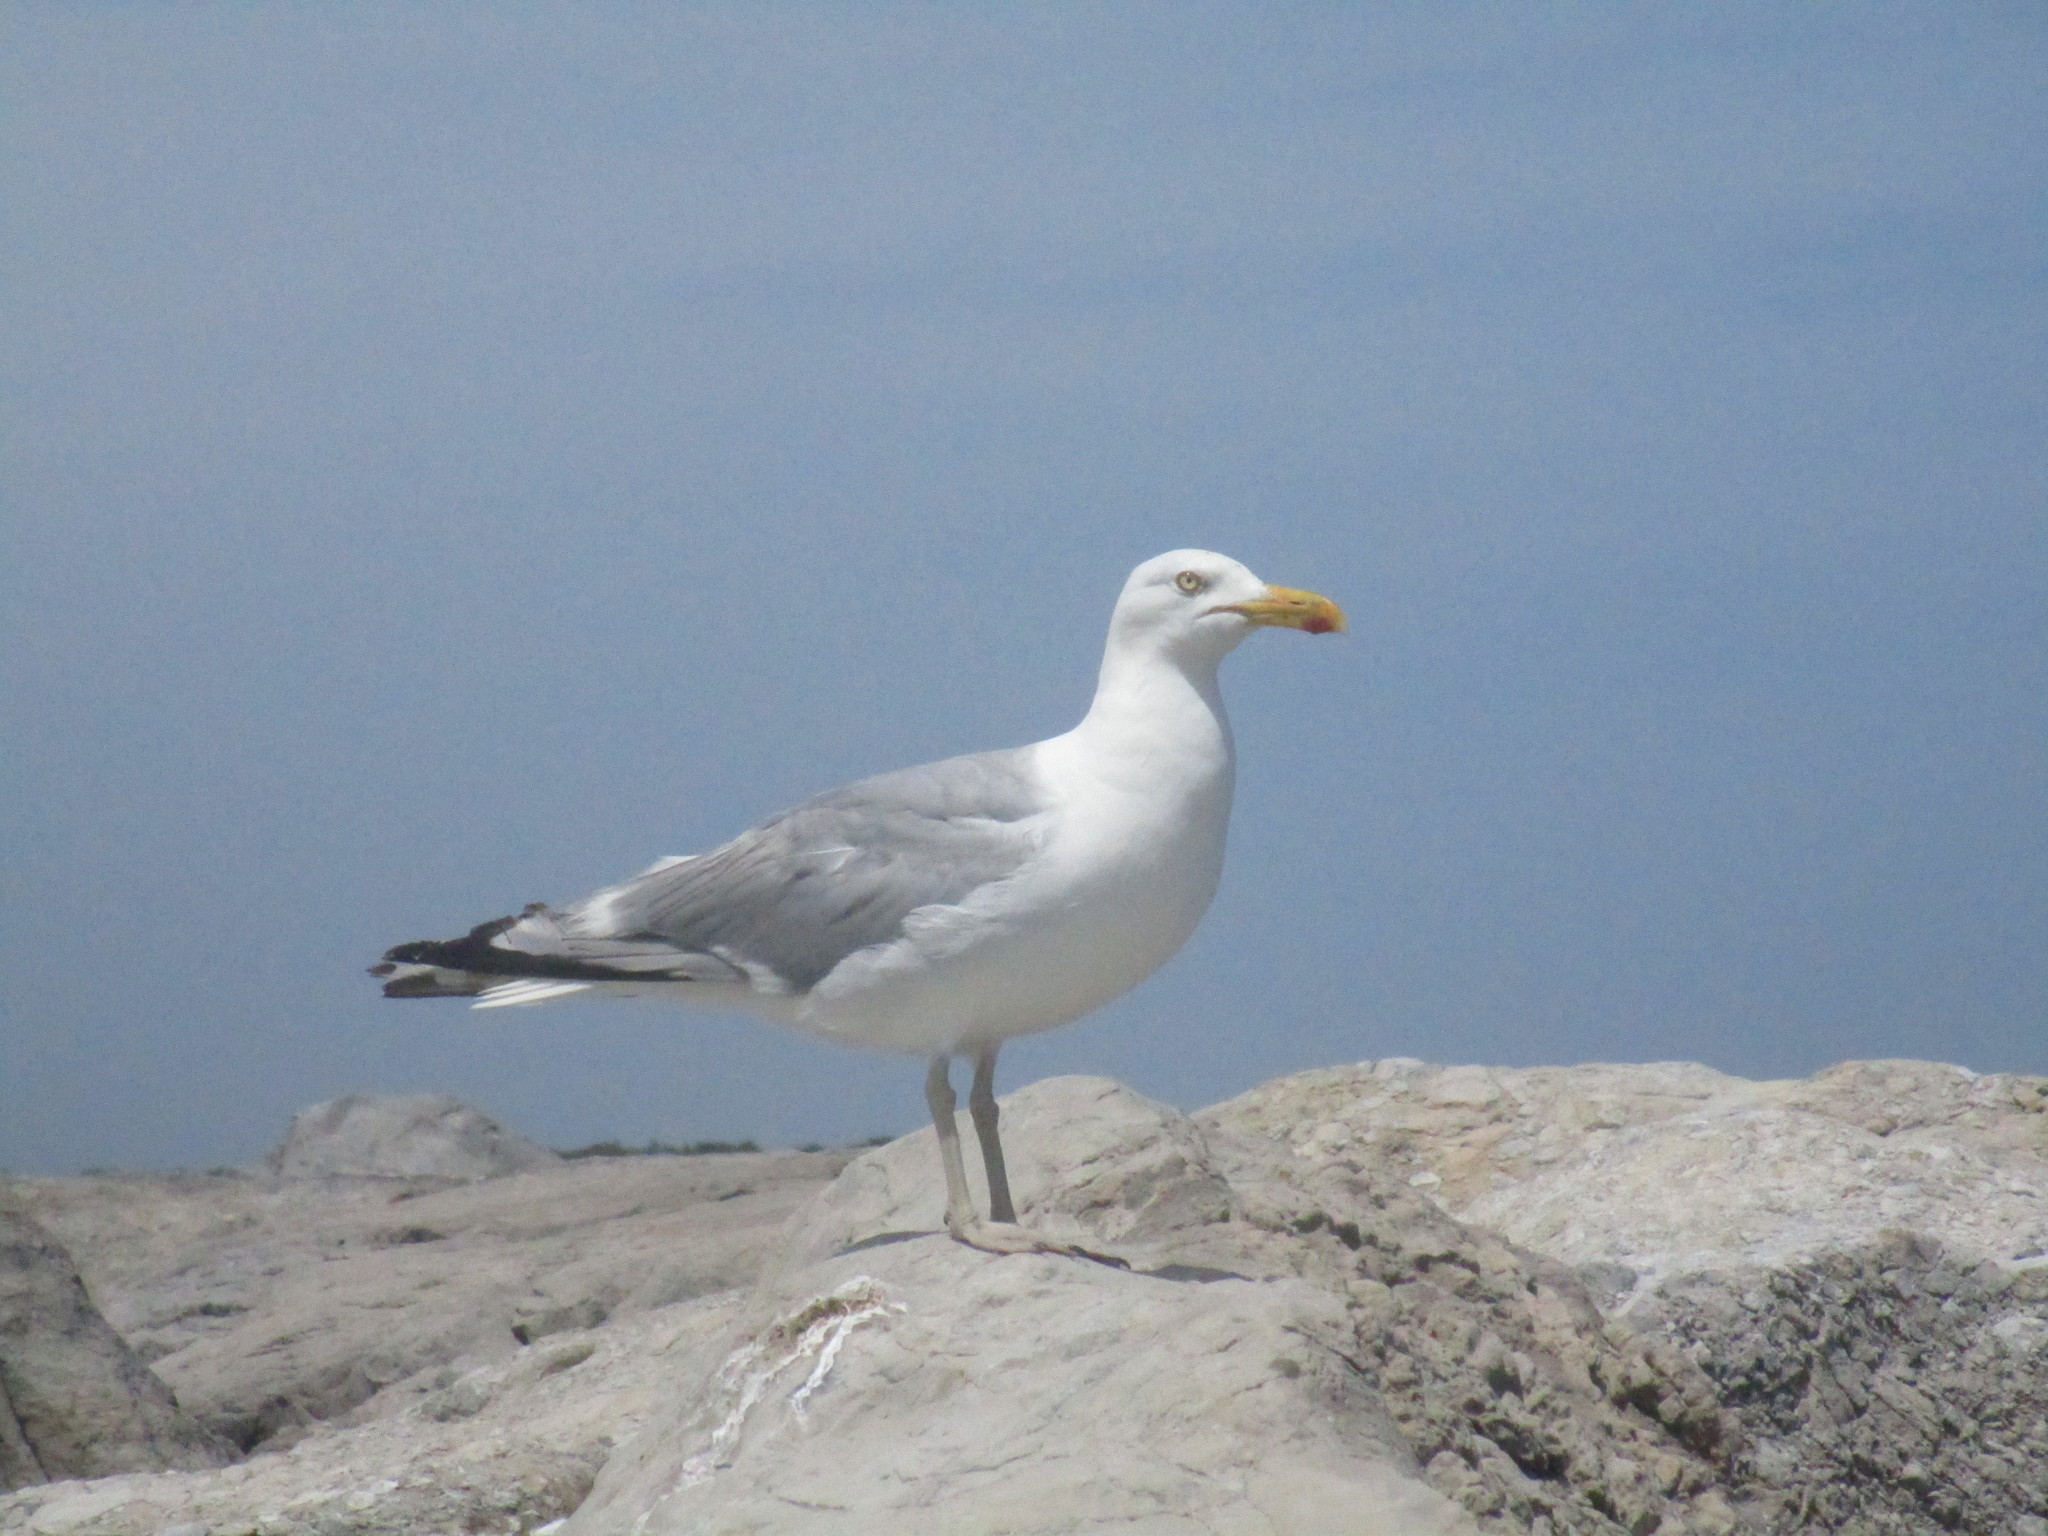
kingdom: Animalia
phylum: Chordata
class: Aves
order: Charadriiformes
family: Laridae
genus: Larus
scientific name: Larus argentatus
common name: Herring gull
